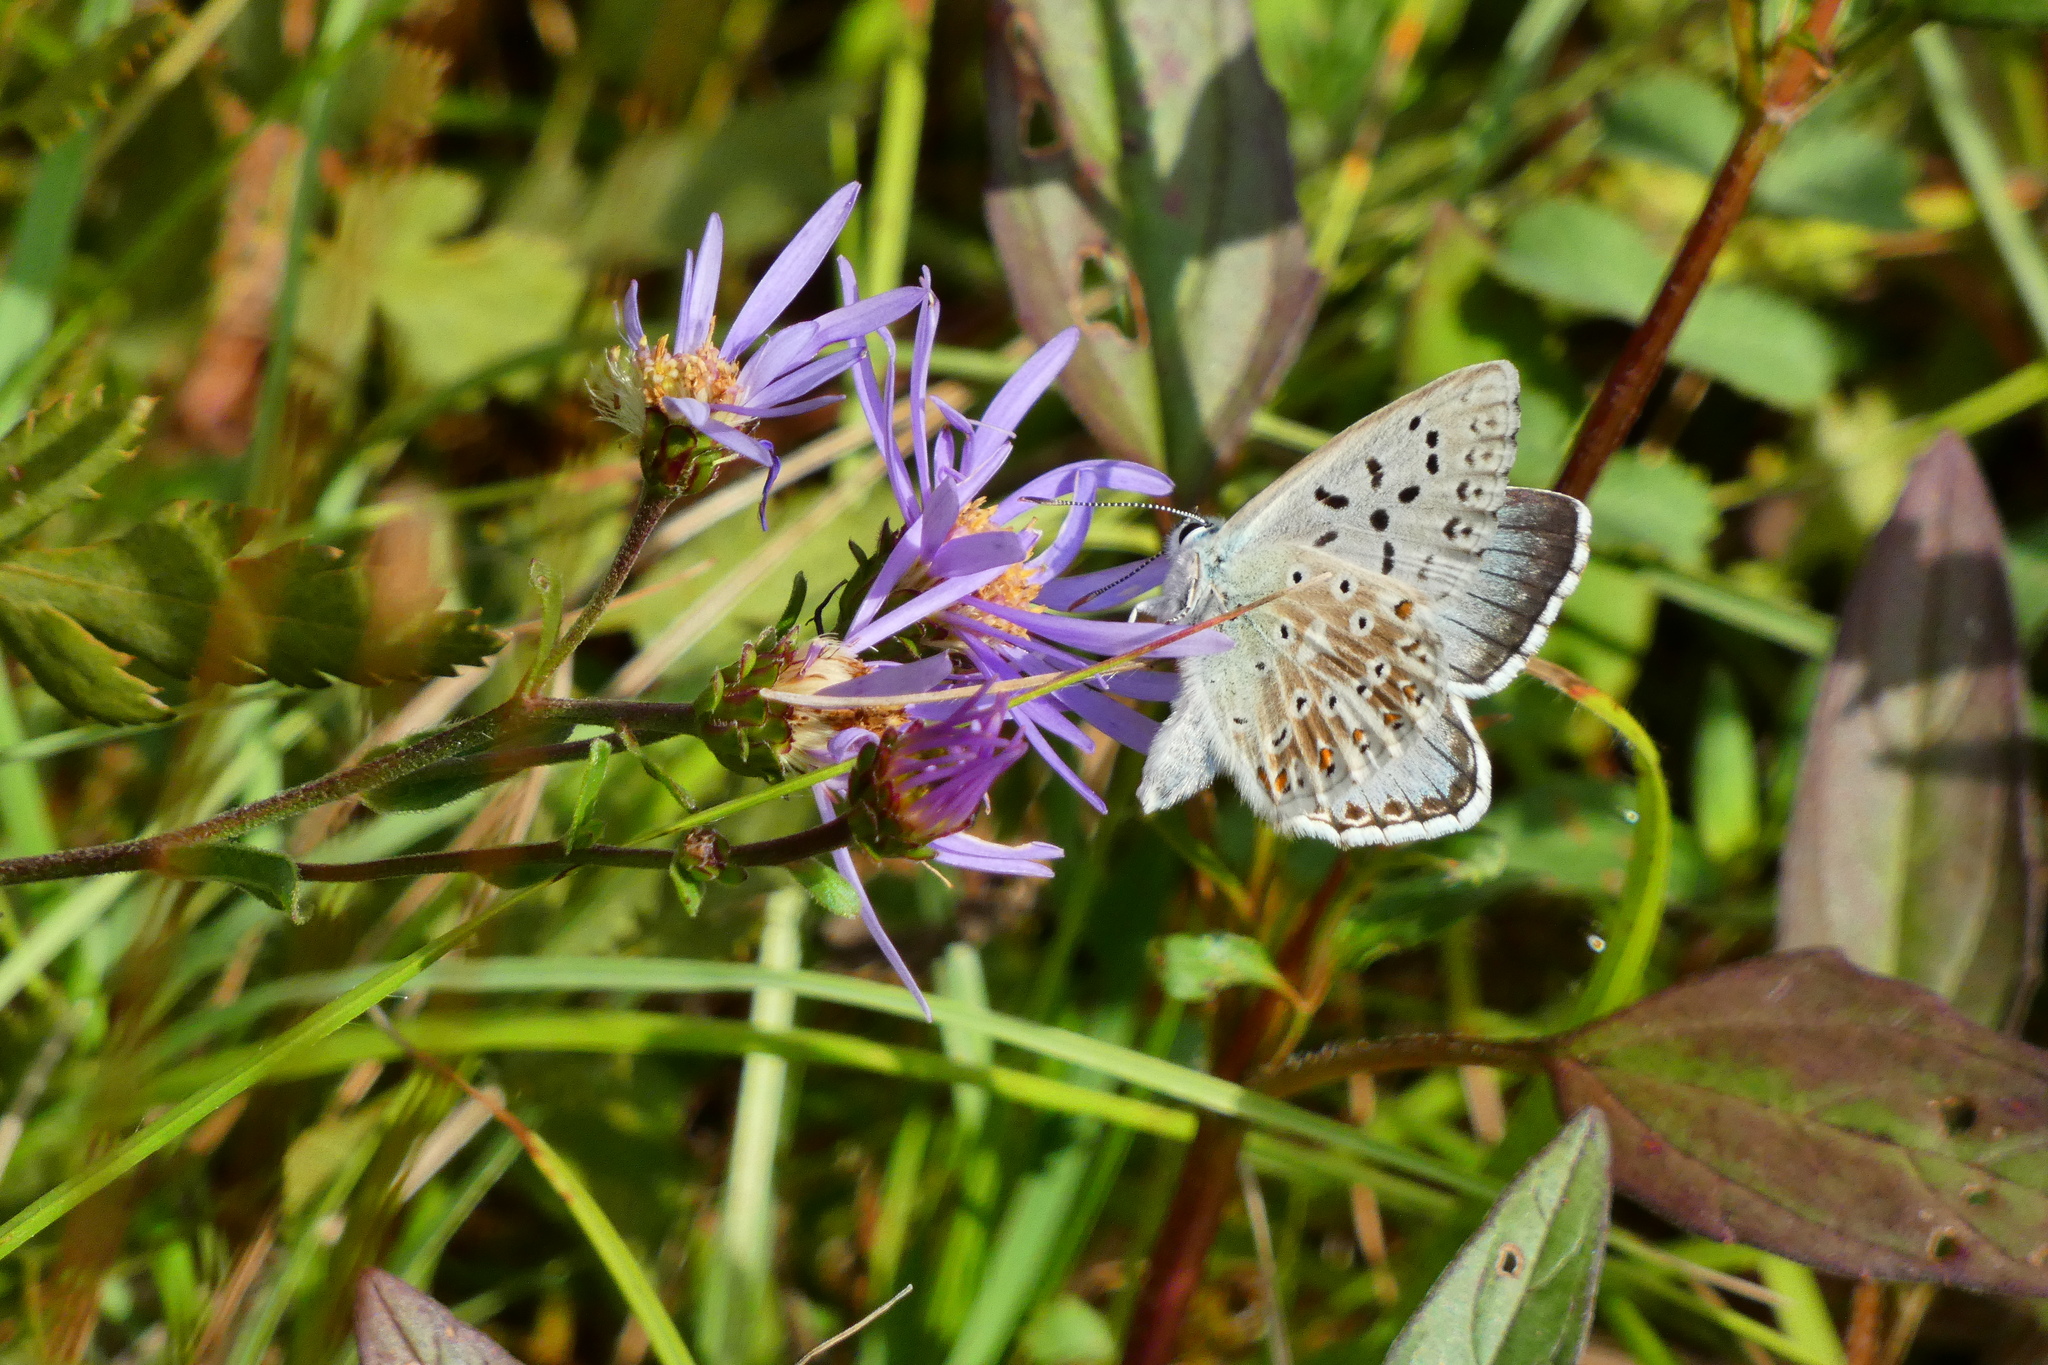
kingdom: Animalia
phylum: Arthropoda
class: Insecta
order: Lepidoptera
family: Lycaenidae
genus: Lysandra
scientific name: Lysandra coridon
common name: Chalkhill blue
